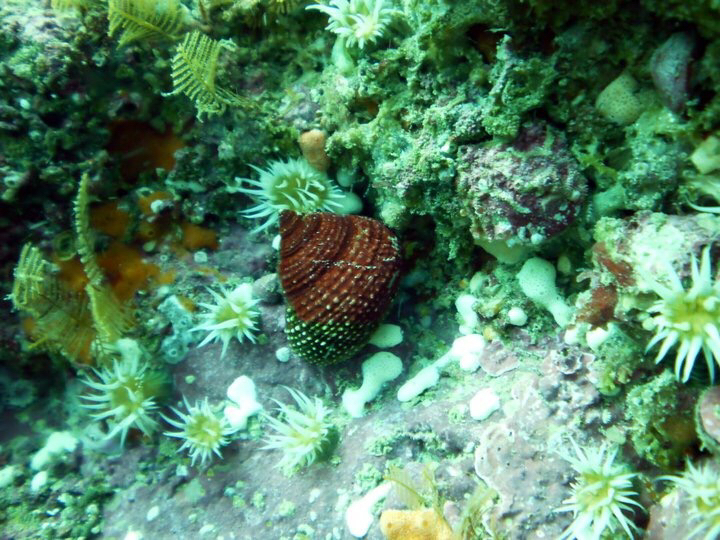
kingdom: Animalia
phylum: Mollusca
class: Gastropoda
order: Trochida
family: Calliostomatidae
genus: Maurea
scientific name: Maurea punctulata
